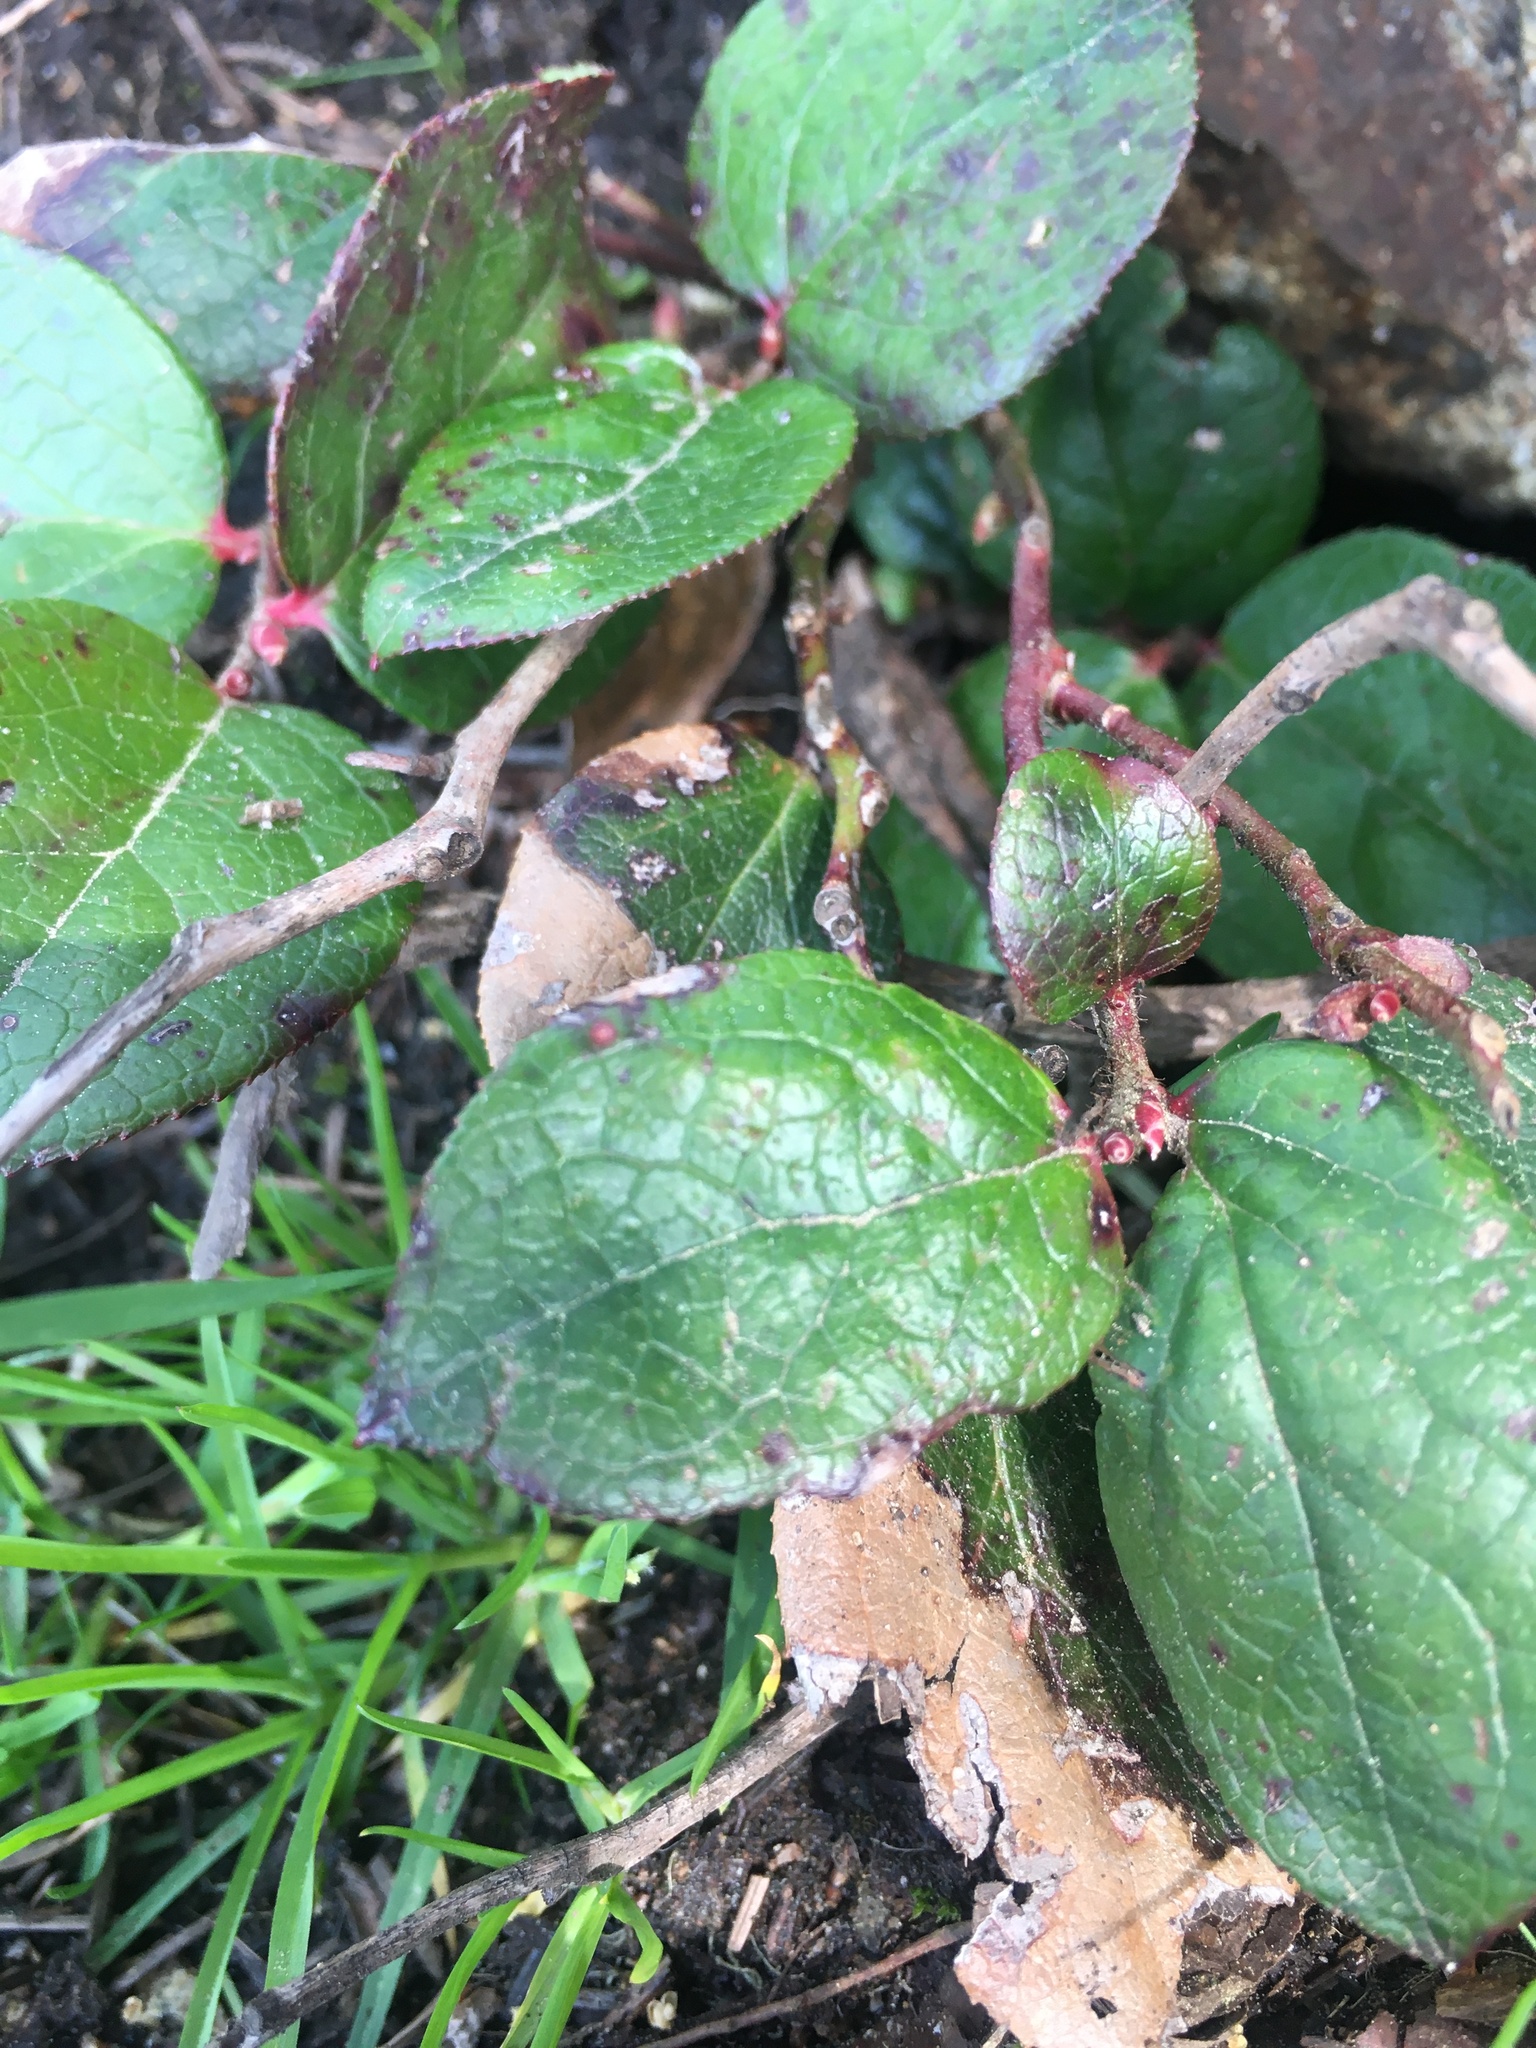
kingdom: Plantae
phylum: Tracheophyta
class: Magnoliopsida
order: Ericales
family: Ericaceae
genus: Gaultheria
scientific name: Gaultheria shallon
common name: Shallon
